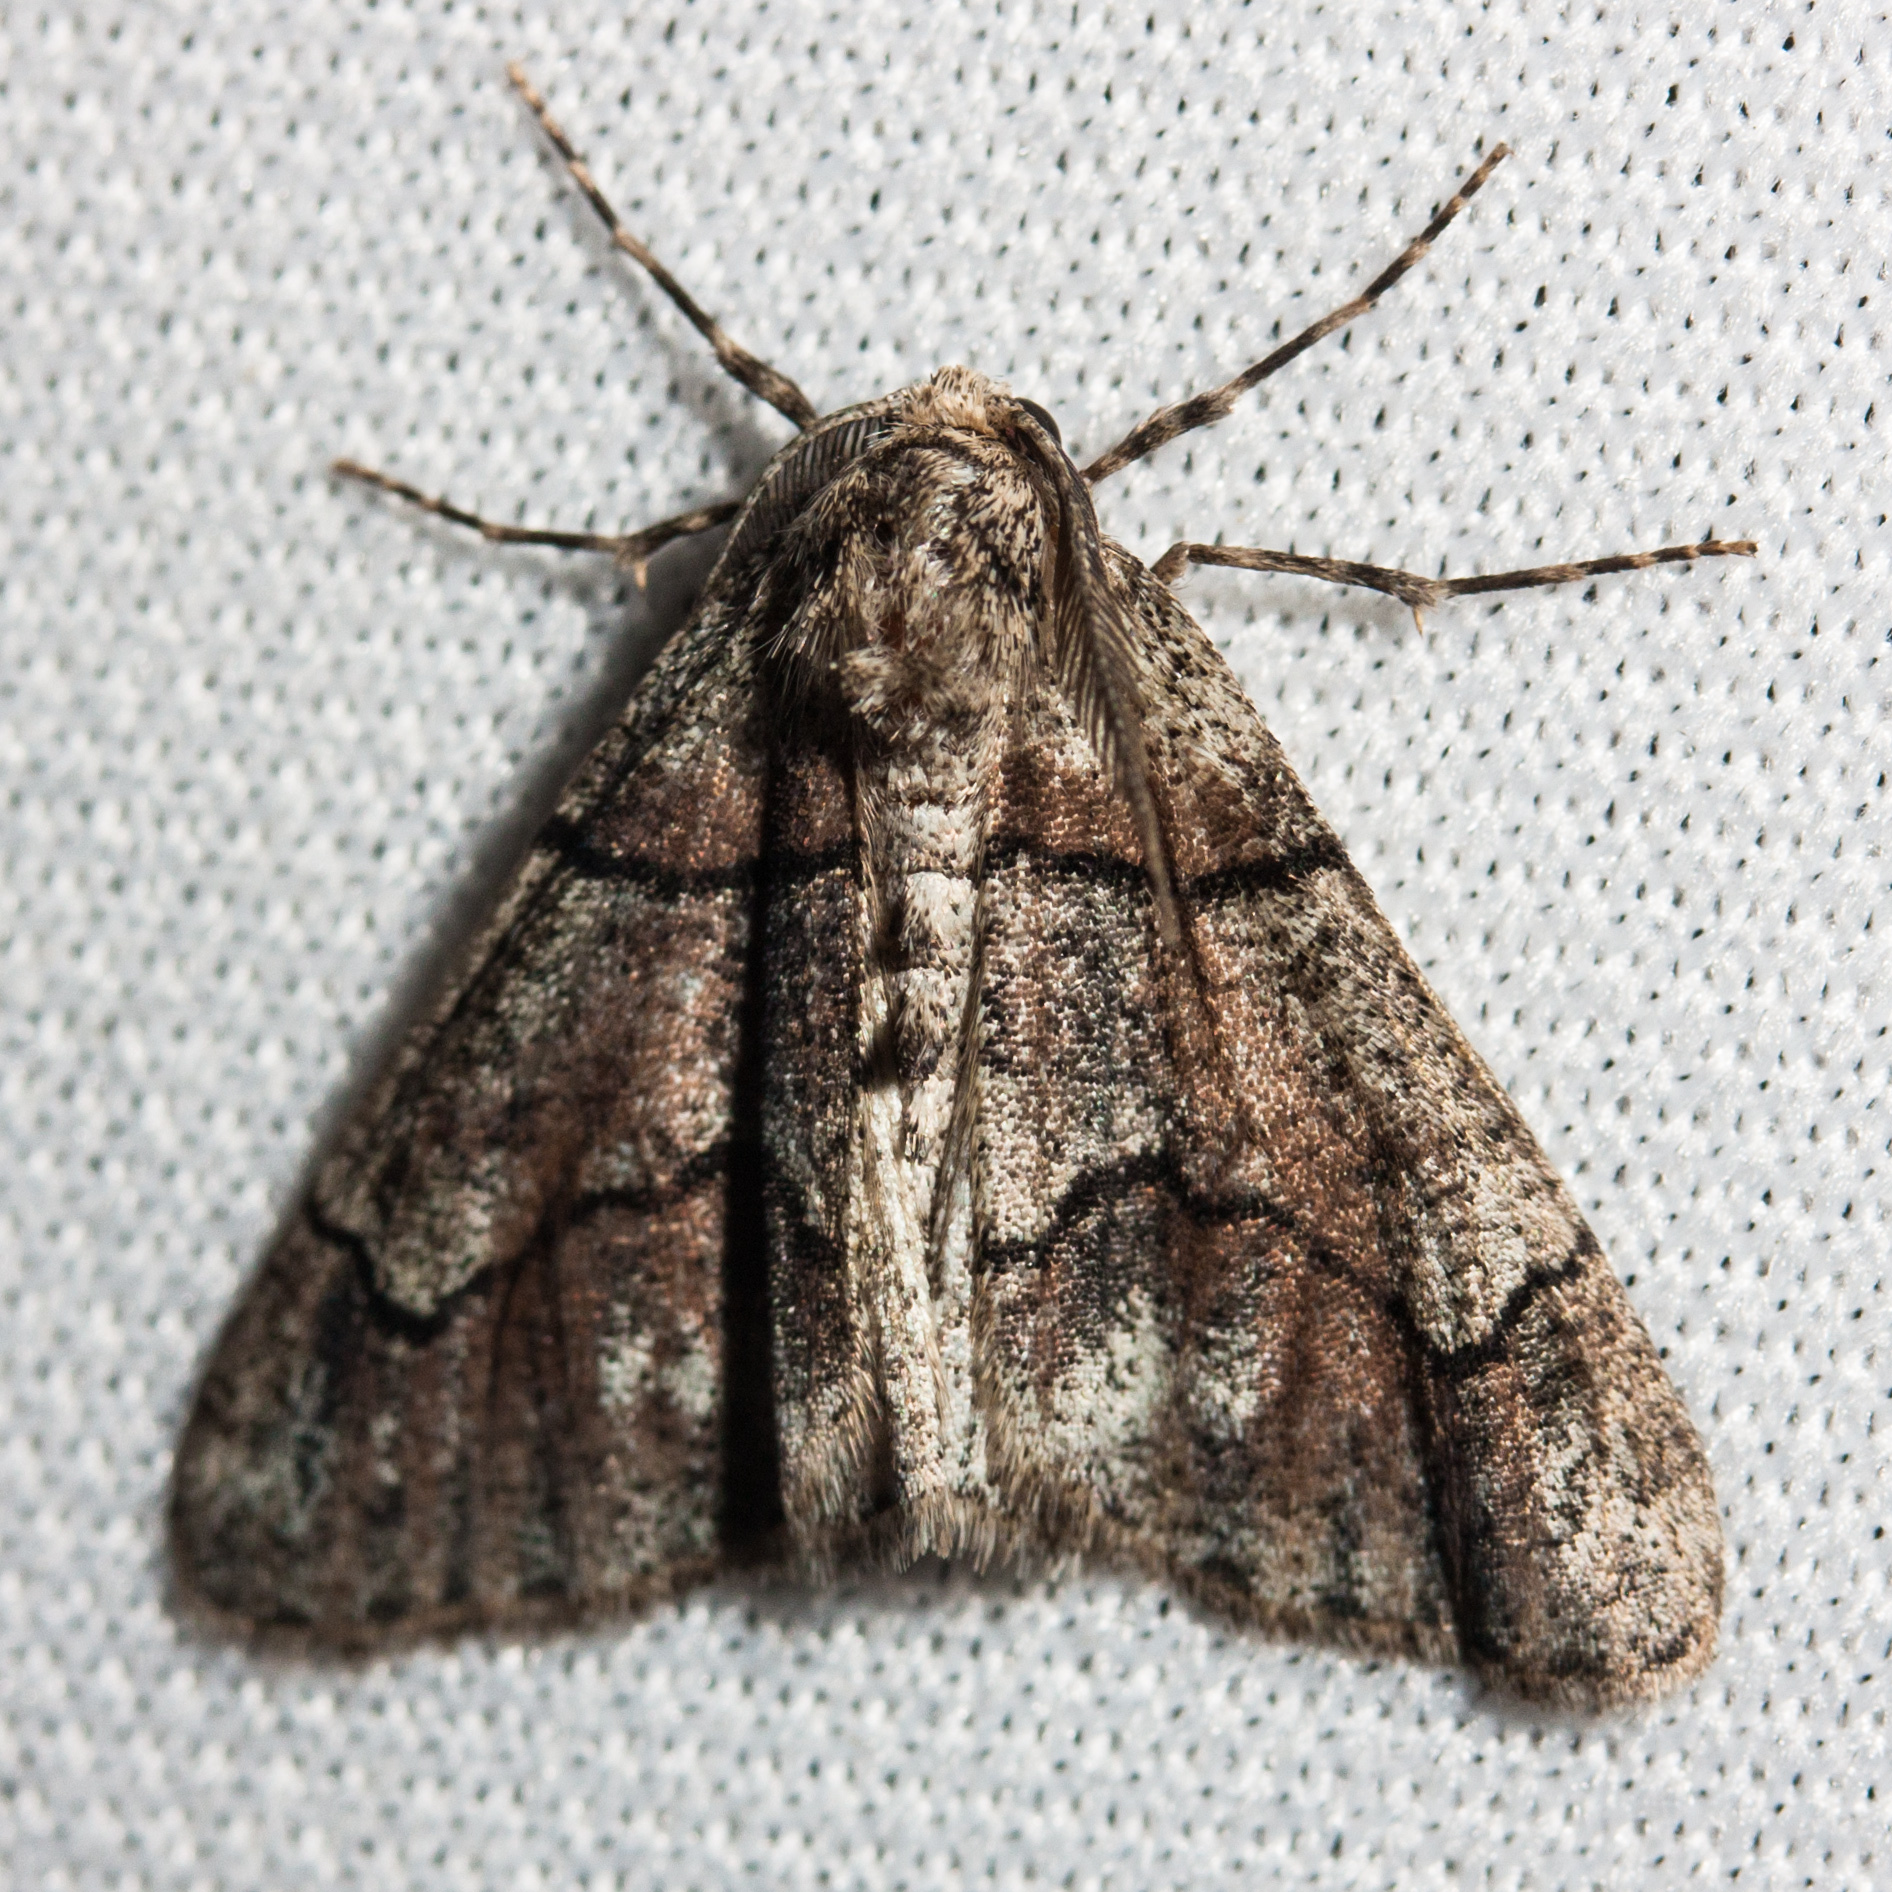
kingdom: Animalia
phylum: Arthropoda
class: Insecta
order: Lepidoptera
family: Geometridae
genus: Gabriola
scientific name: Gabriola dyari
